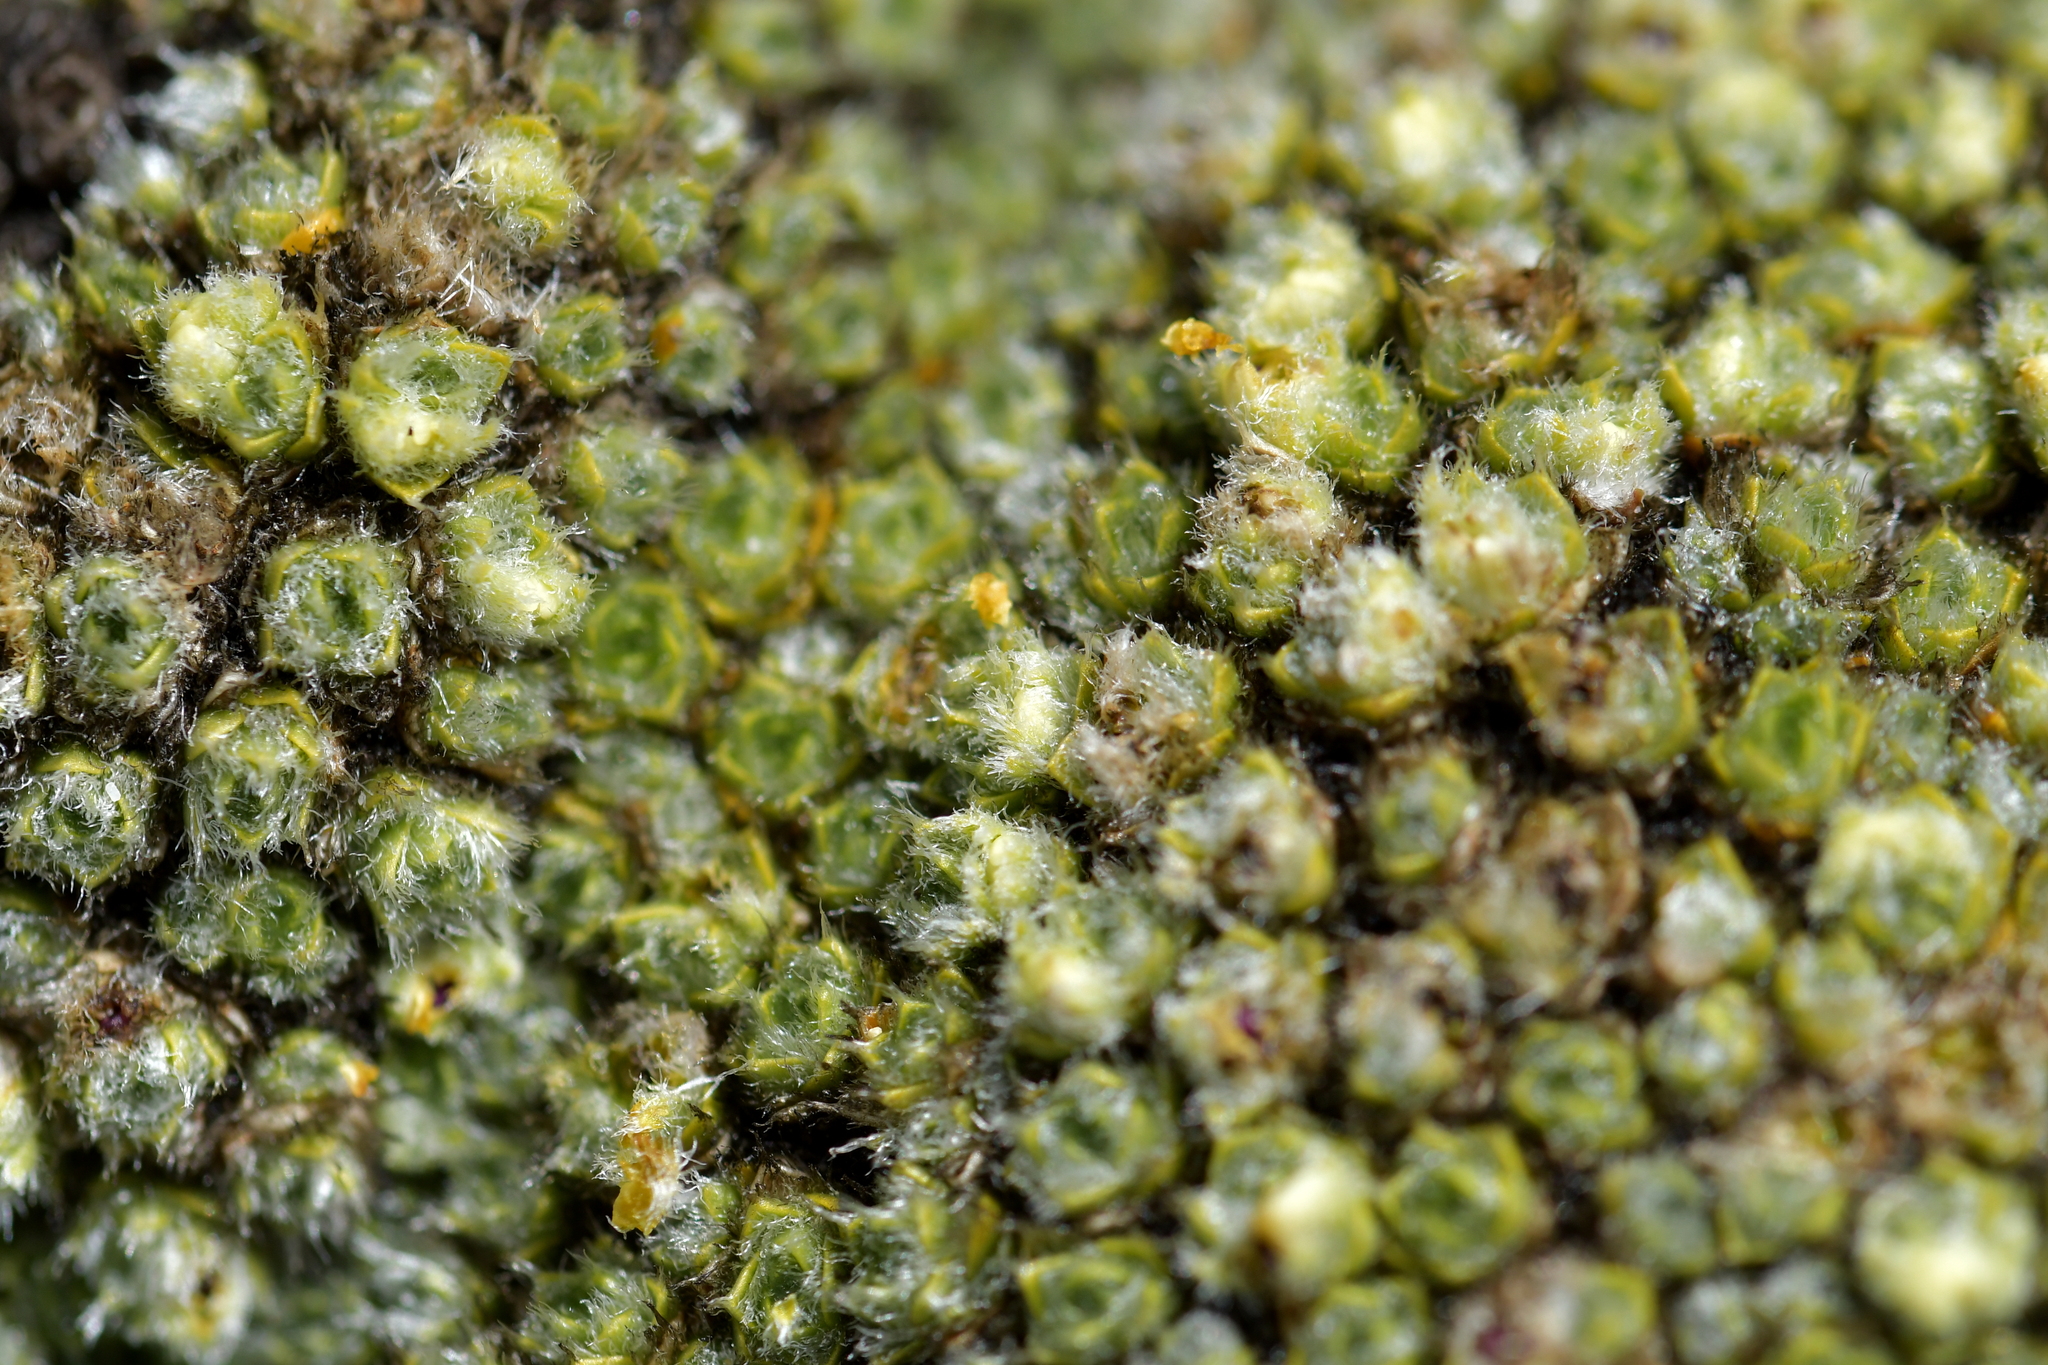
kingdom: Plantae
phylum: Tracheophyta
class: Magnoliopsida
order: Lamiales
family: Plantaginaceae
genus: Veronica
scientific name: Veronica thomsonii
